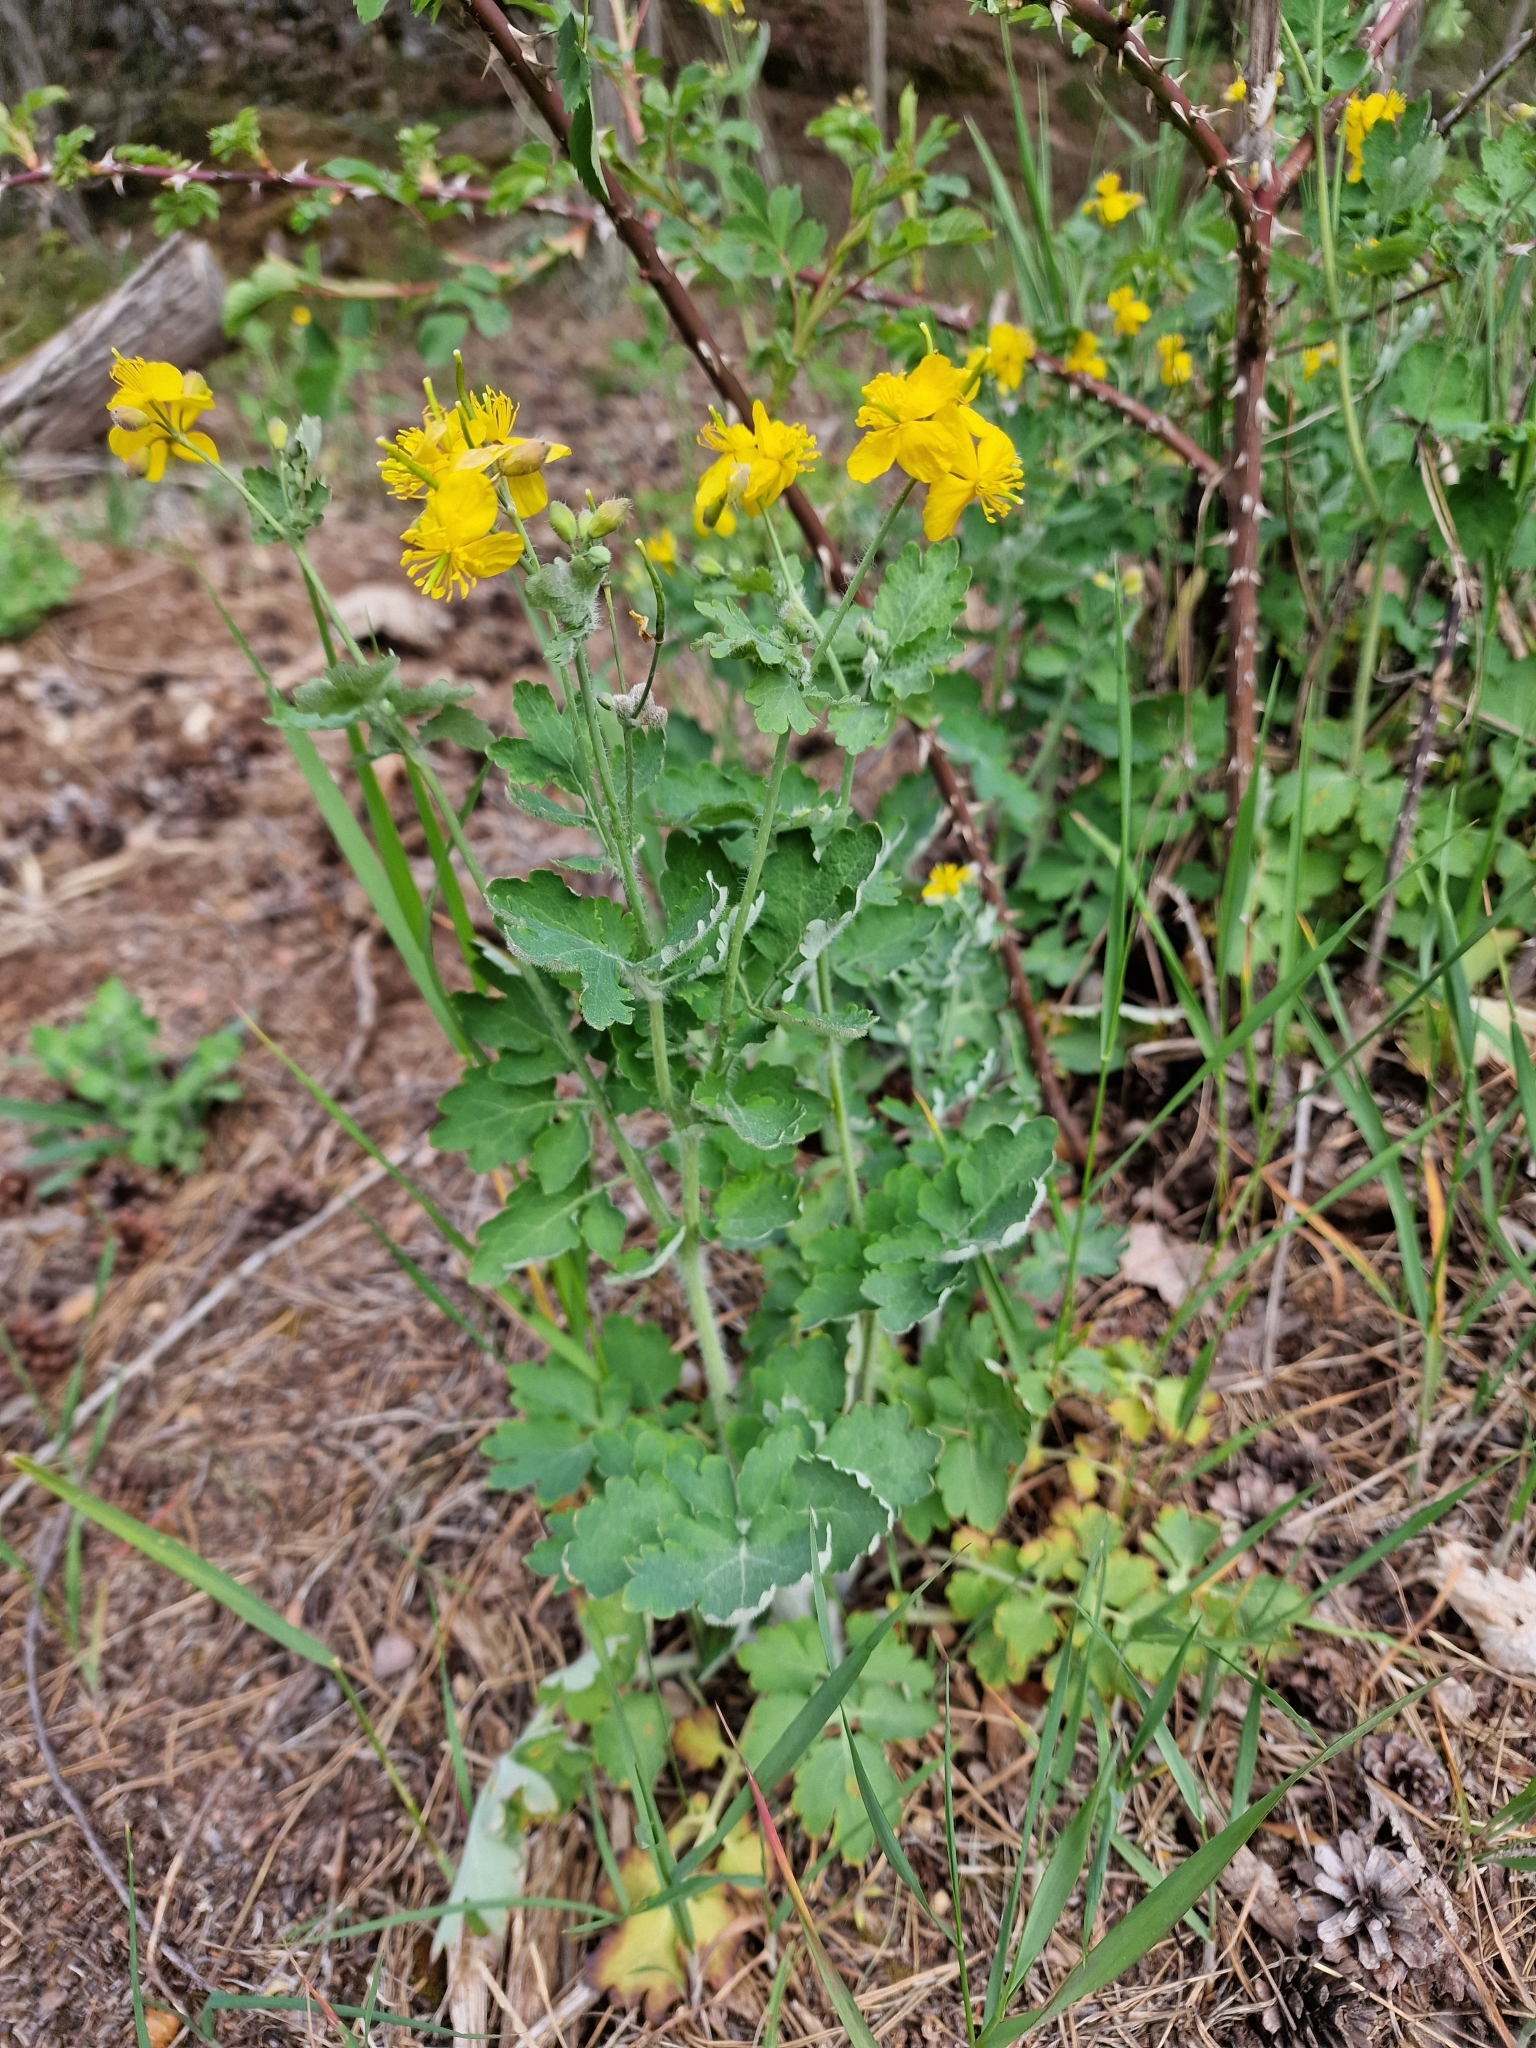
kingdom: Plantae
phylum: Tracheophyta
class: Magnoliopsida
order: Ranunculales
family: Papaveraceae
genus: Chelidonium
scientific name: Chelidonium majus
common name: Greater celandine
